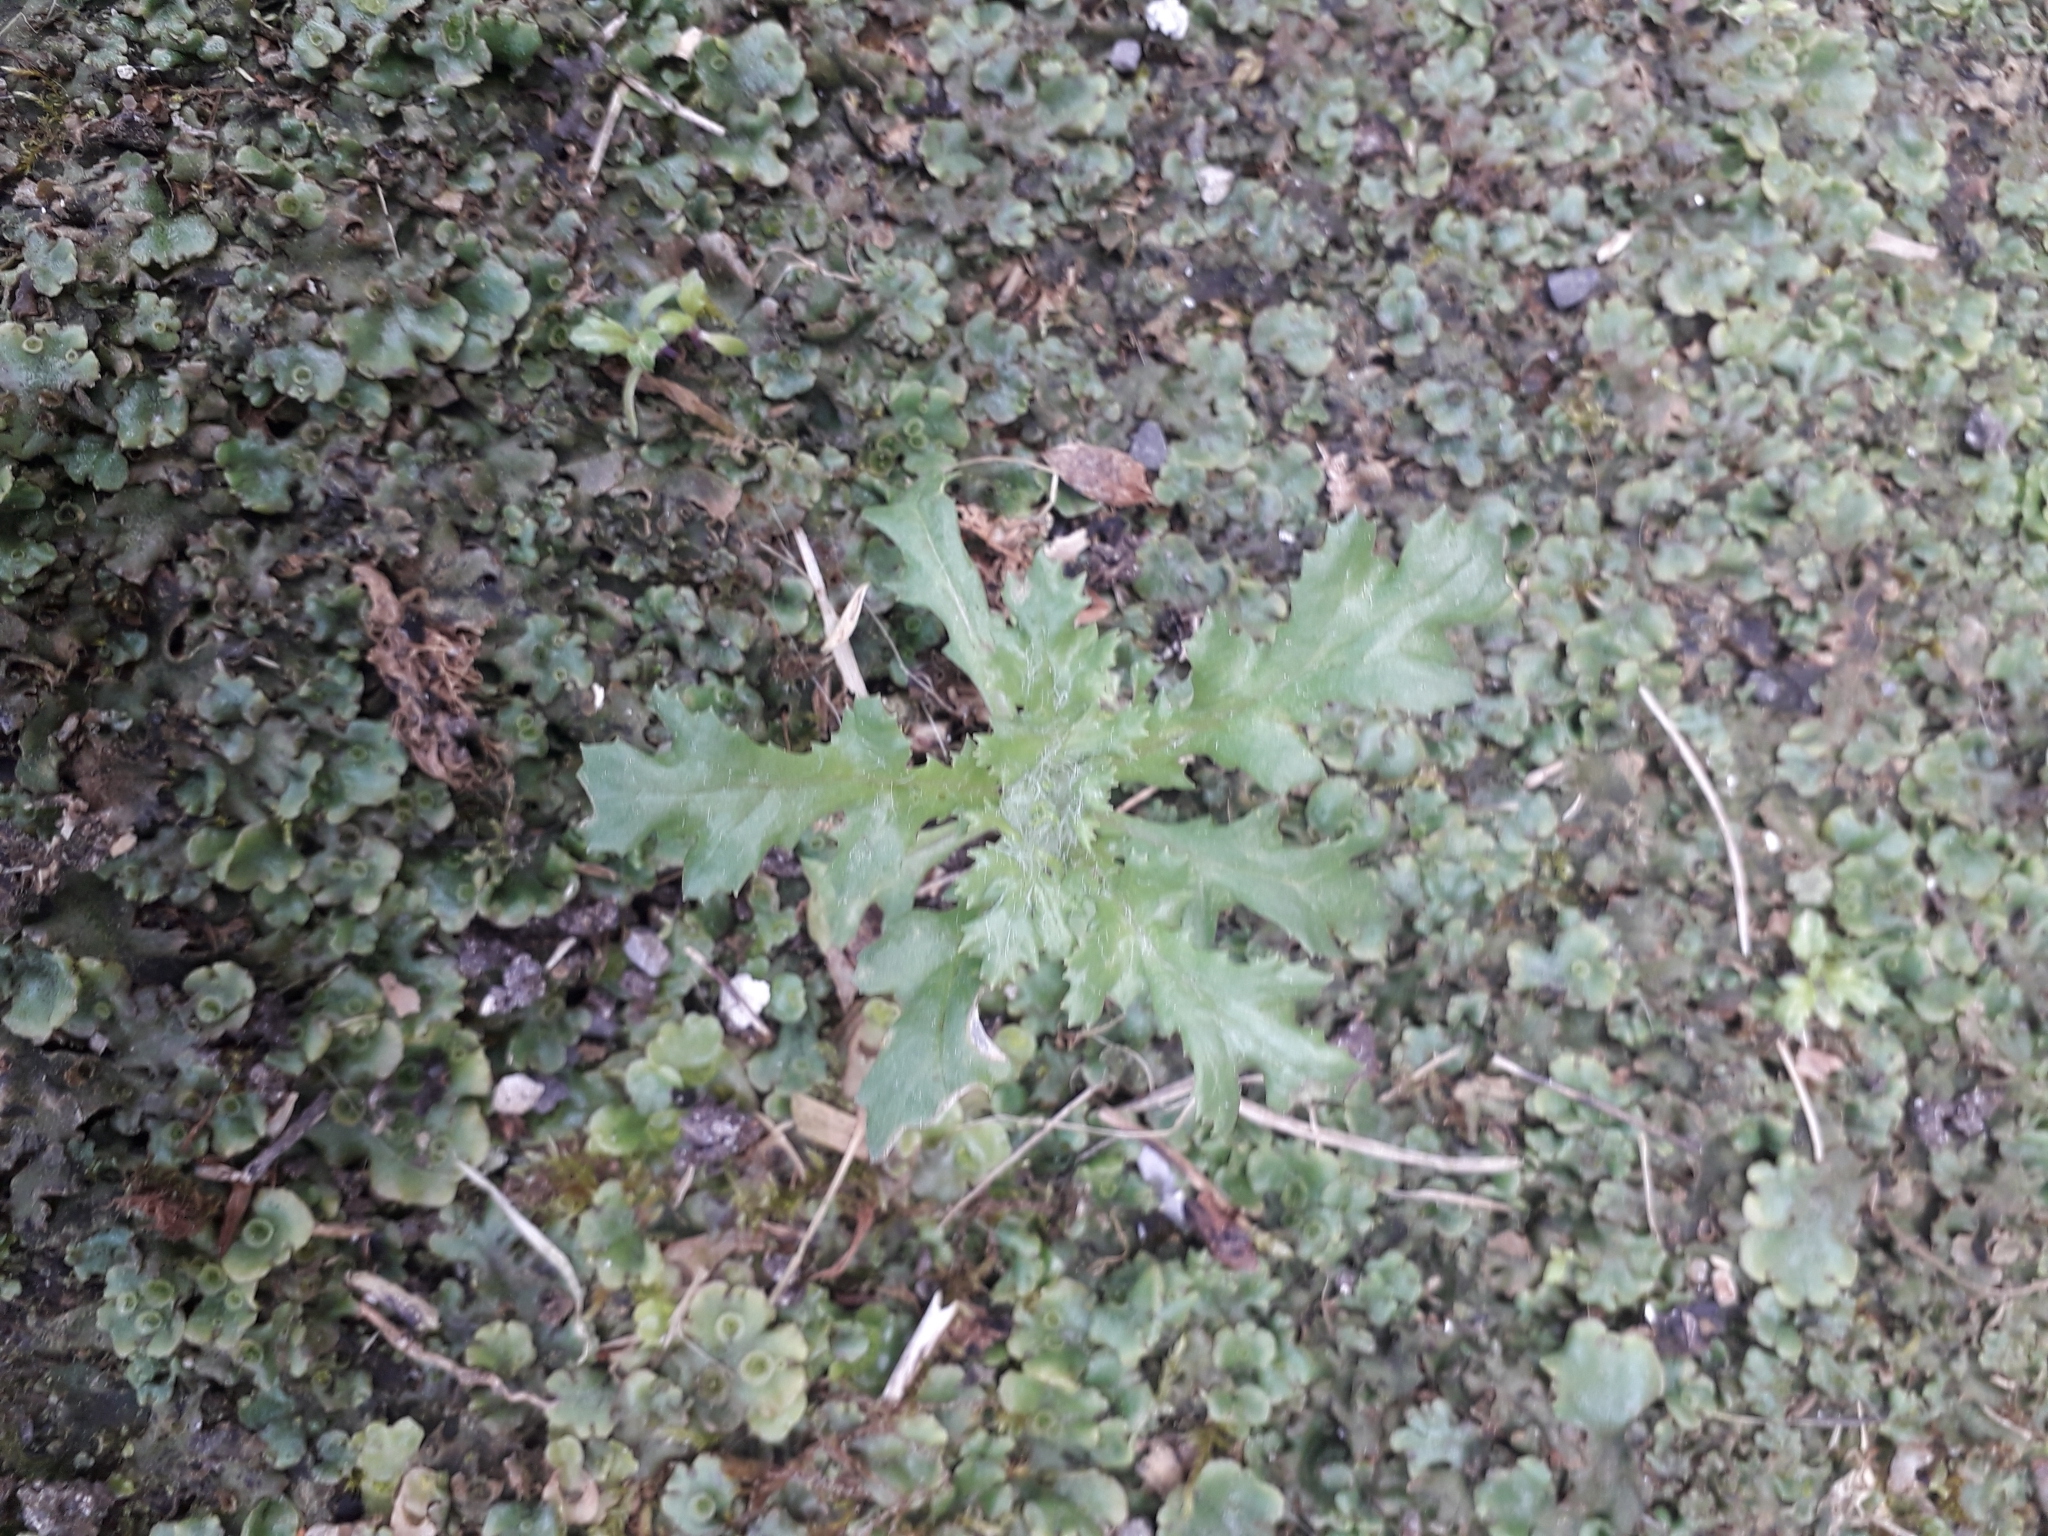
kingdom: Plantae
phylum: Tracheophyta
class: Magnoliopsida
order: Asterales
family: Asteraceae
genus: Senecio
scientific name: Senecio vulgaris
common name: Old-man-in-the-spring
